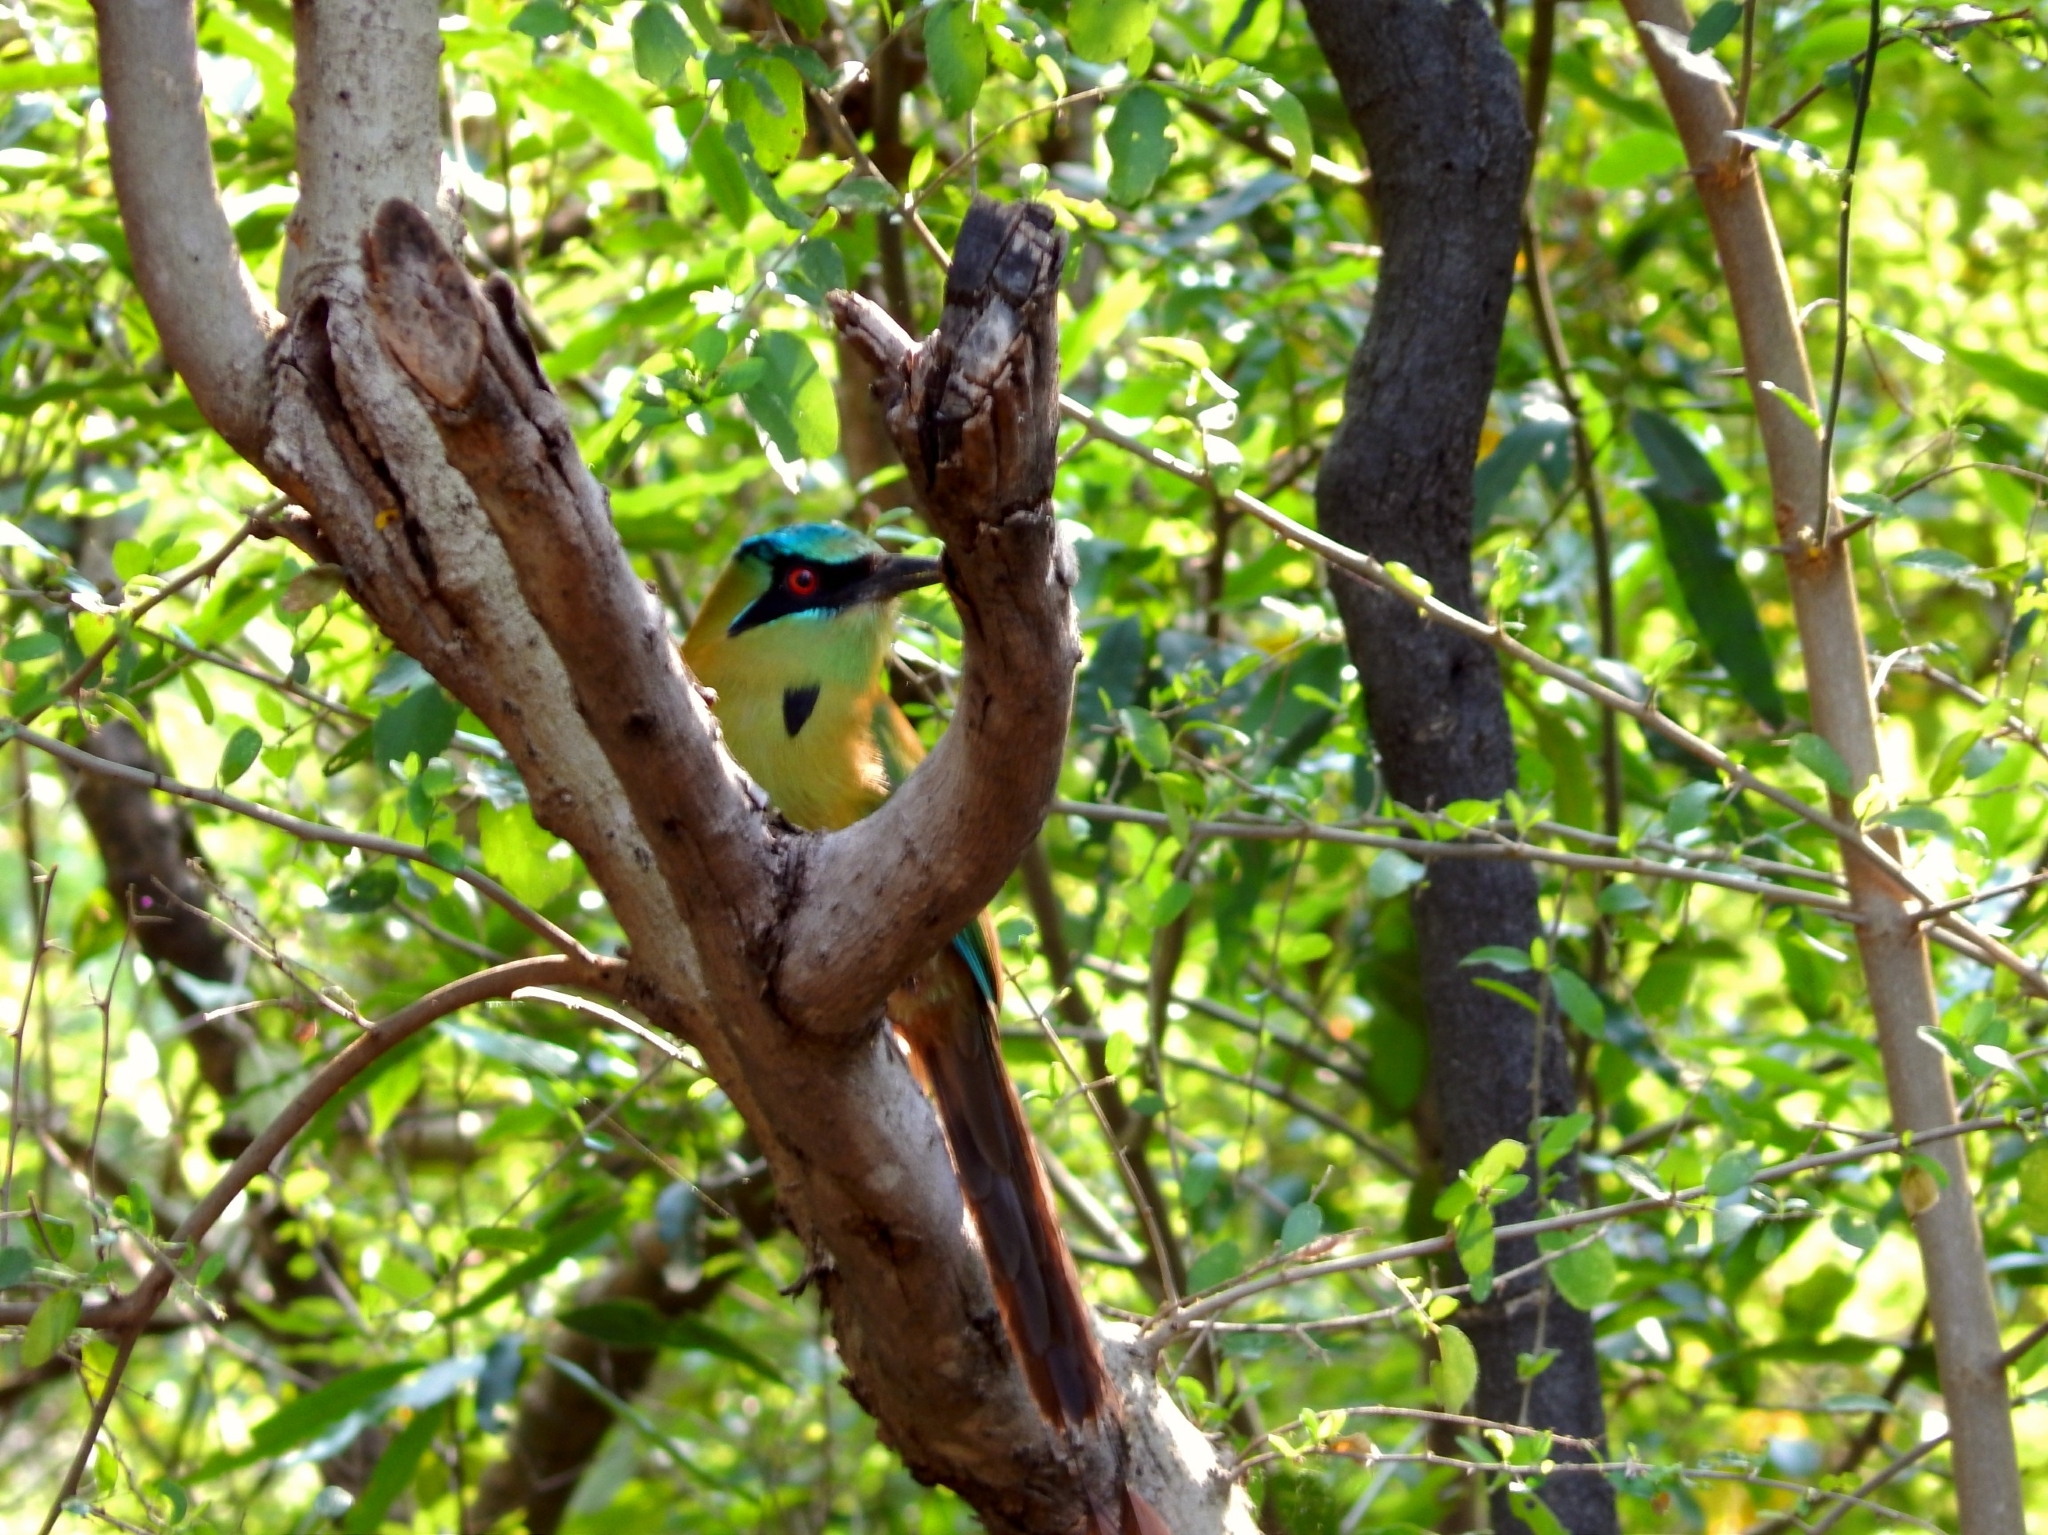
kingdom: Animalia
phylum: Chordata
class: Aves
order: Coraciiformes
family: Momotidae
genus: Momotus
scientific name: Momotus coeruliceps
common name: Blue-capped motmot
